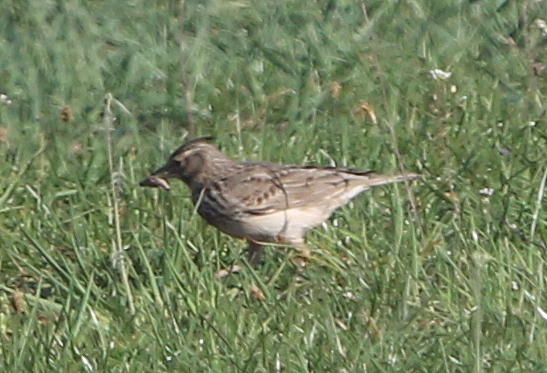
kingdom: Animalia
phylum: Chordata
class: Aves
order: Passeriformes
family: Alaudidae
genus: Galerida
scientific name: Galerida cristata
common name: Crested lark
